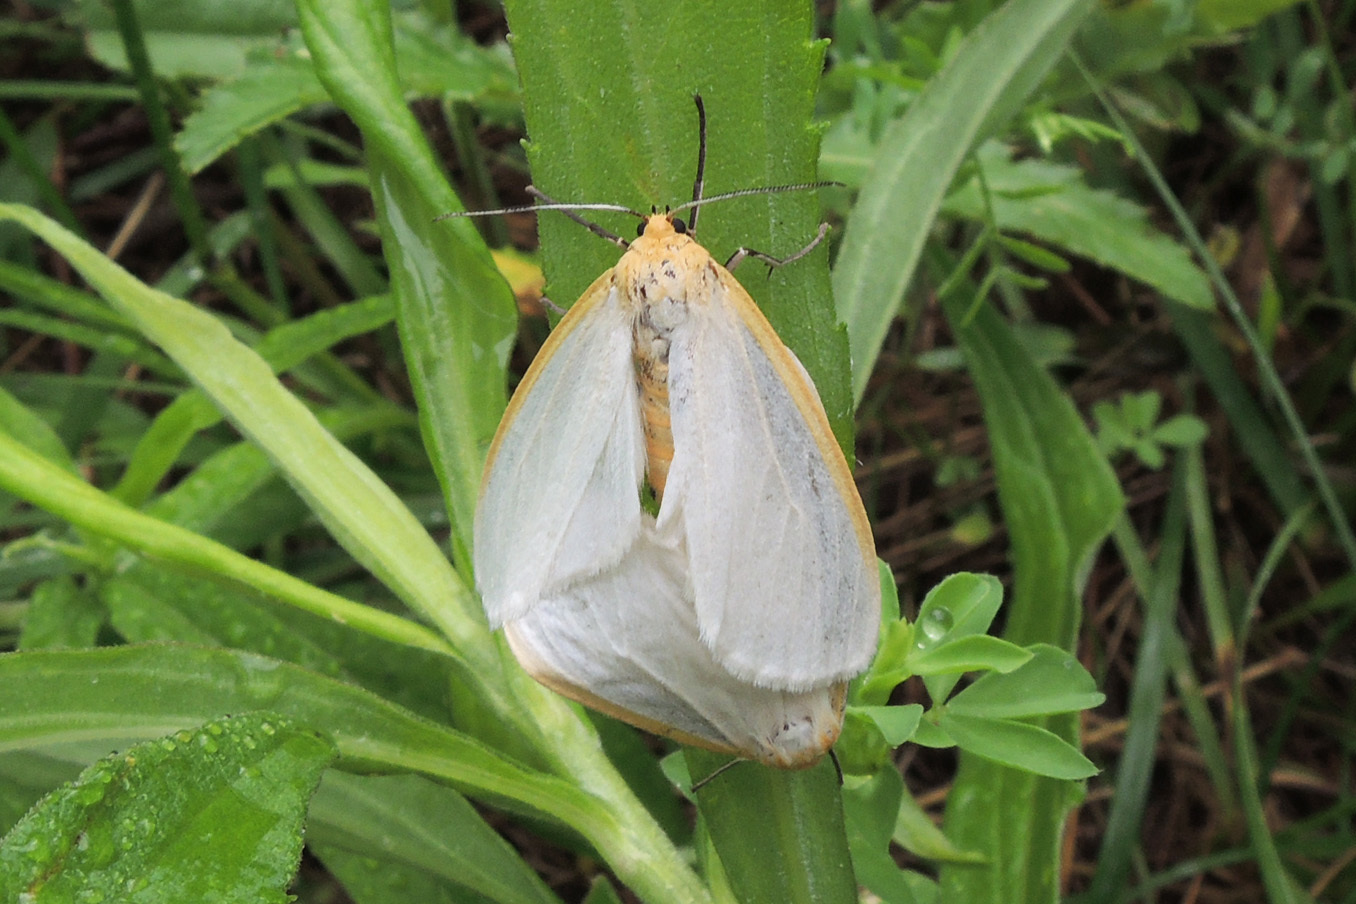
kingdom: Animalia
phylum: Arthropoda
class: Insecta
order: Lepidoptera
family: Erebidae
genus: Cycnia
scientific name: Cycnia tenera
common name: Delicate cycnia moth
